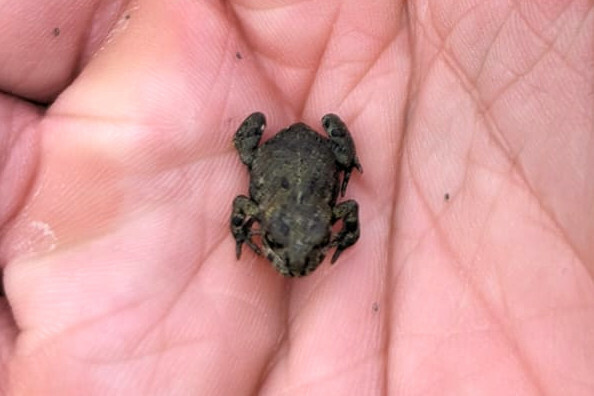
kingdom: Animalia
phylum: Chordata
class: Amphibia
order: Anura
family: Bufonidae
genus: Anaxyrus
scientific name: Anaxyrus boreas
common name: Western toad
